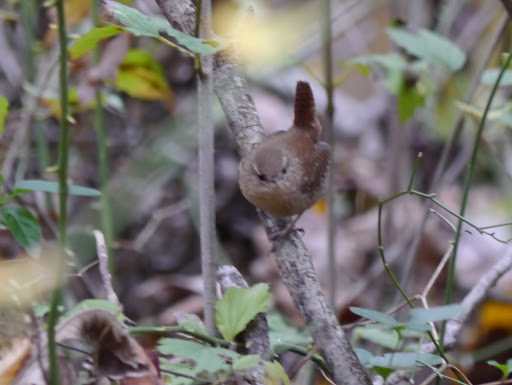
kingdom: Animalia
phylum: Chordata
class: Aves
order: Passeriformes
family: Troglodytidae
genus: Troglodytes
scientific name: Troglodytes hiemalis
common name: Winter wren
